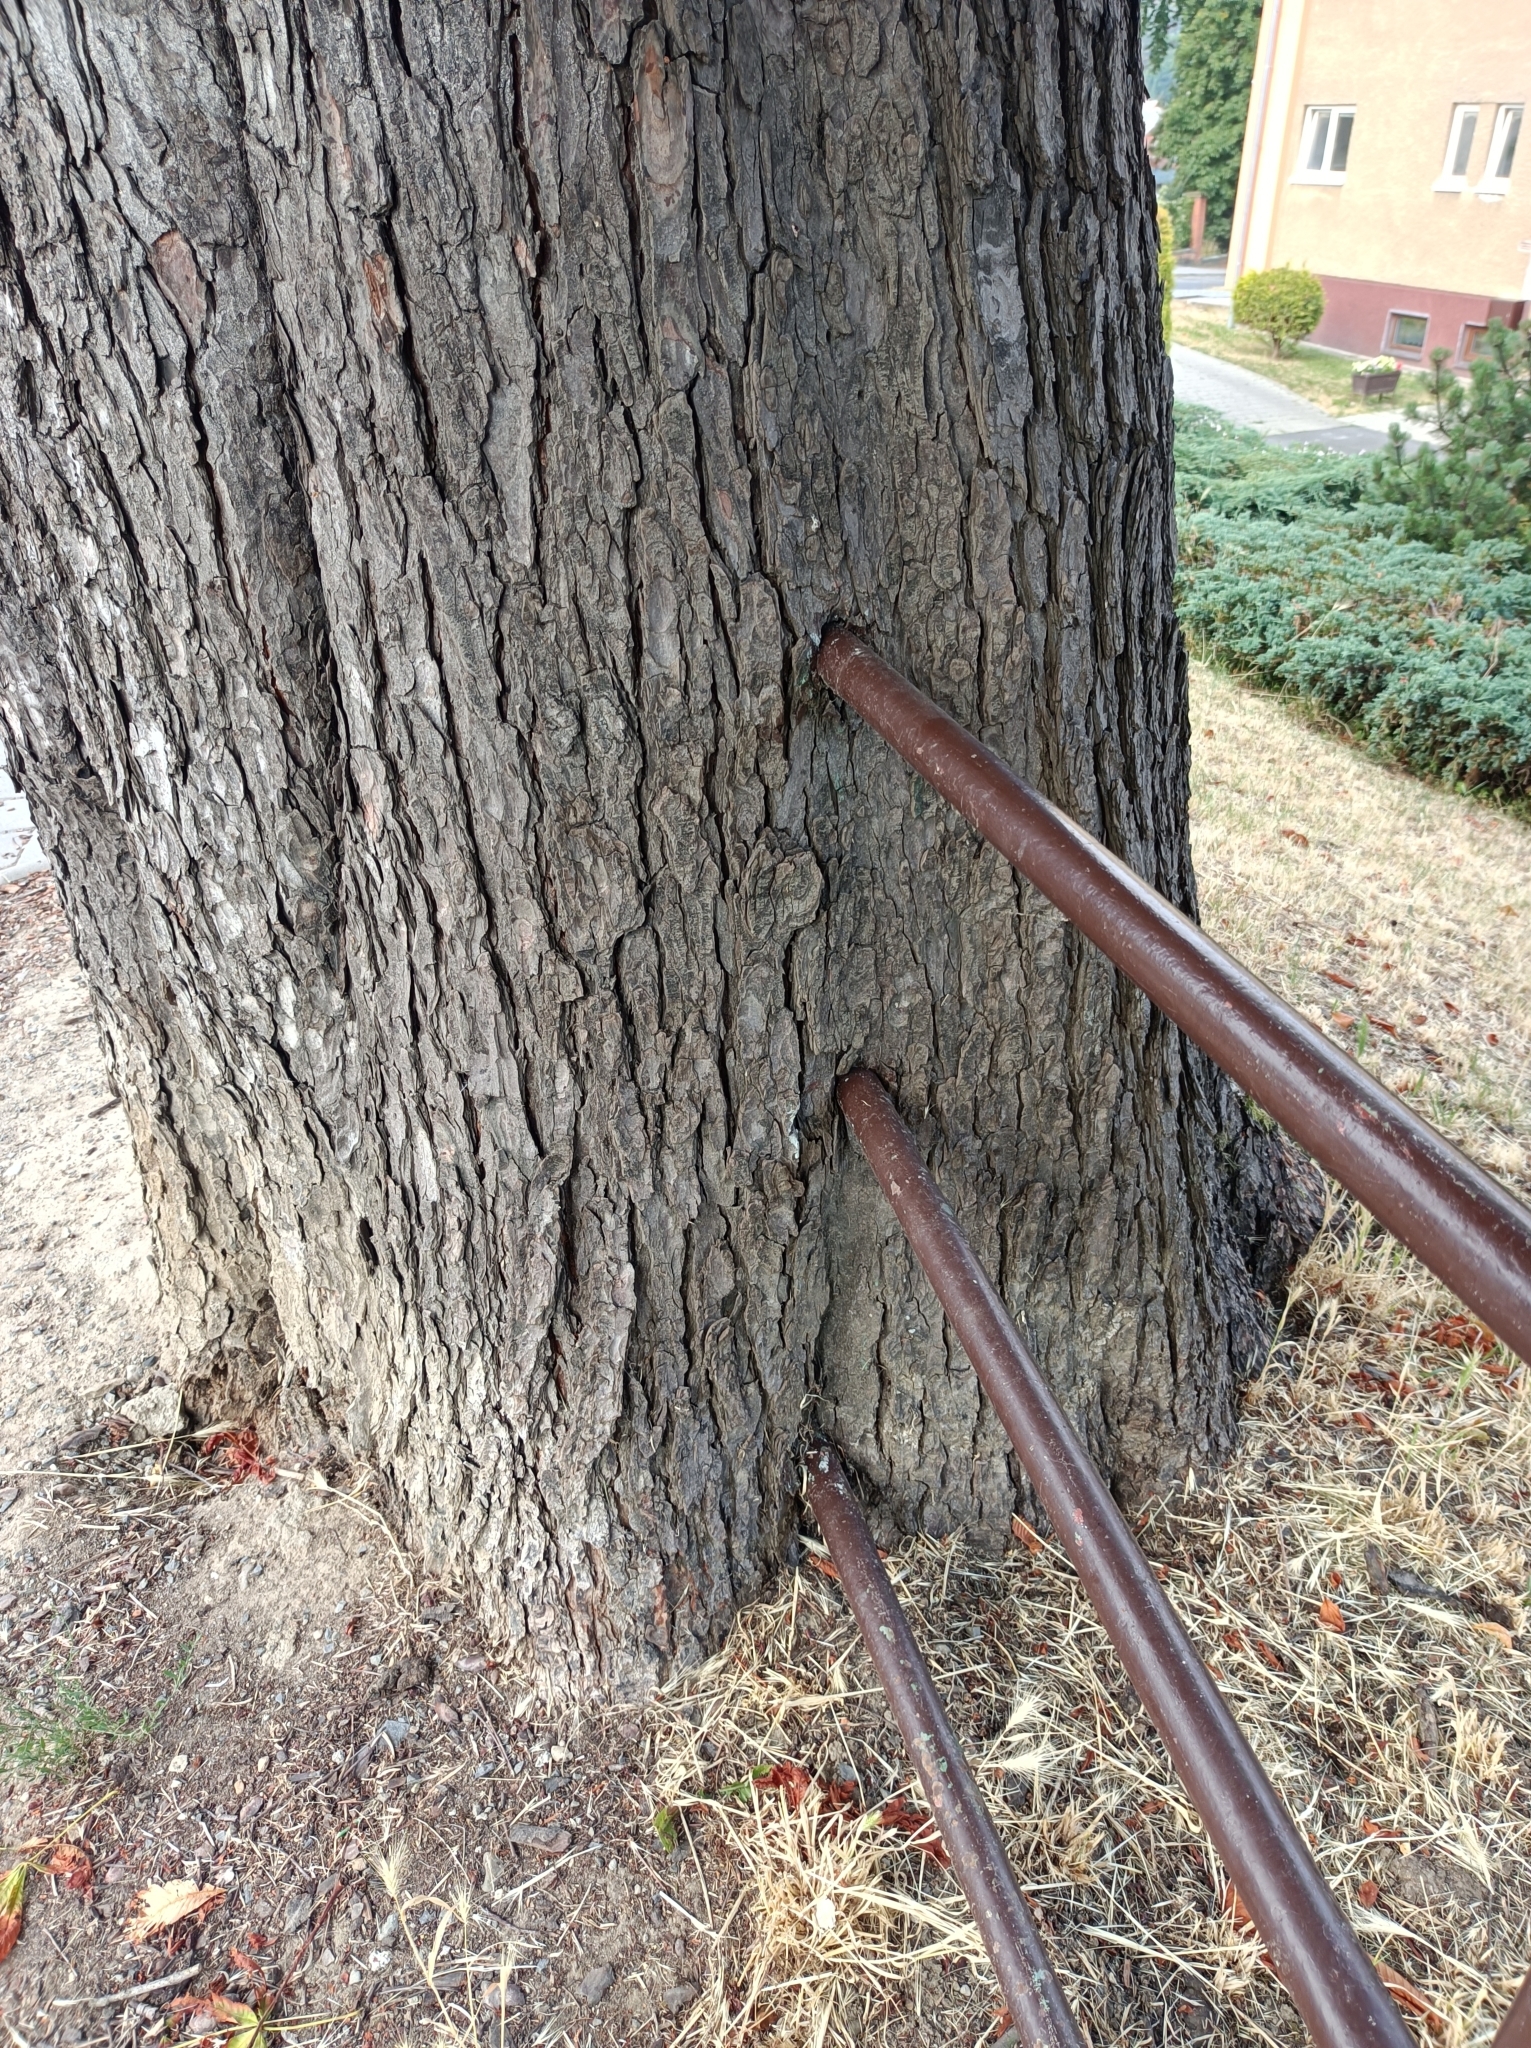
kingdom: Plantae
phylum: Tracheophyta
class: Magnoliopsida
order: Sapindales
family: Sapindaceae
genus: Aesculus
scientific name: Aesculus hippocastanum
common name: Horse-chestnut
